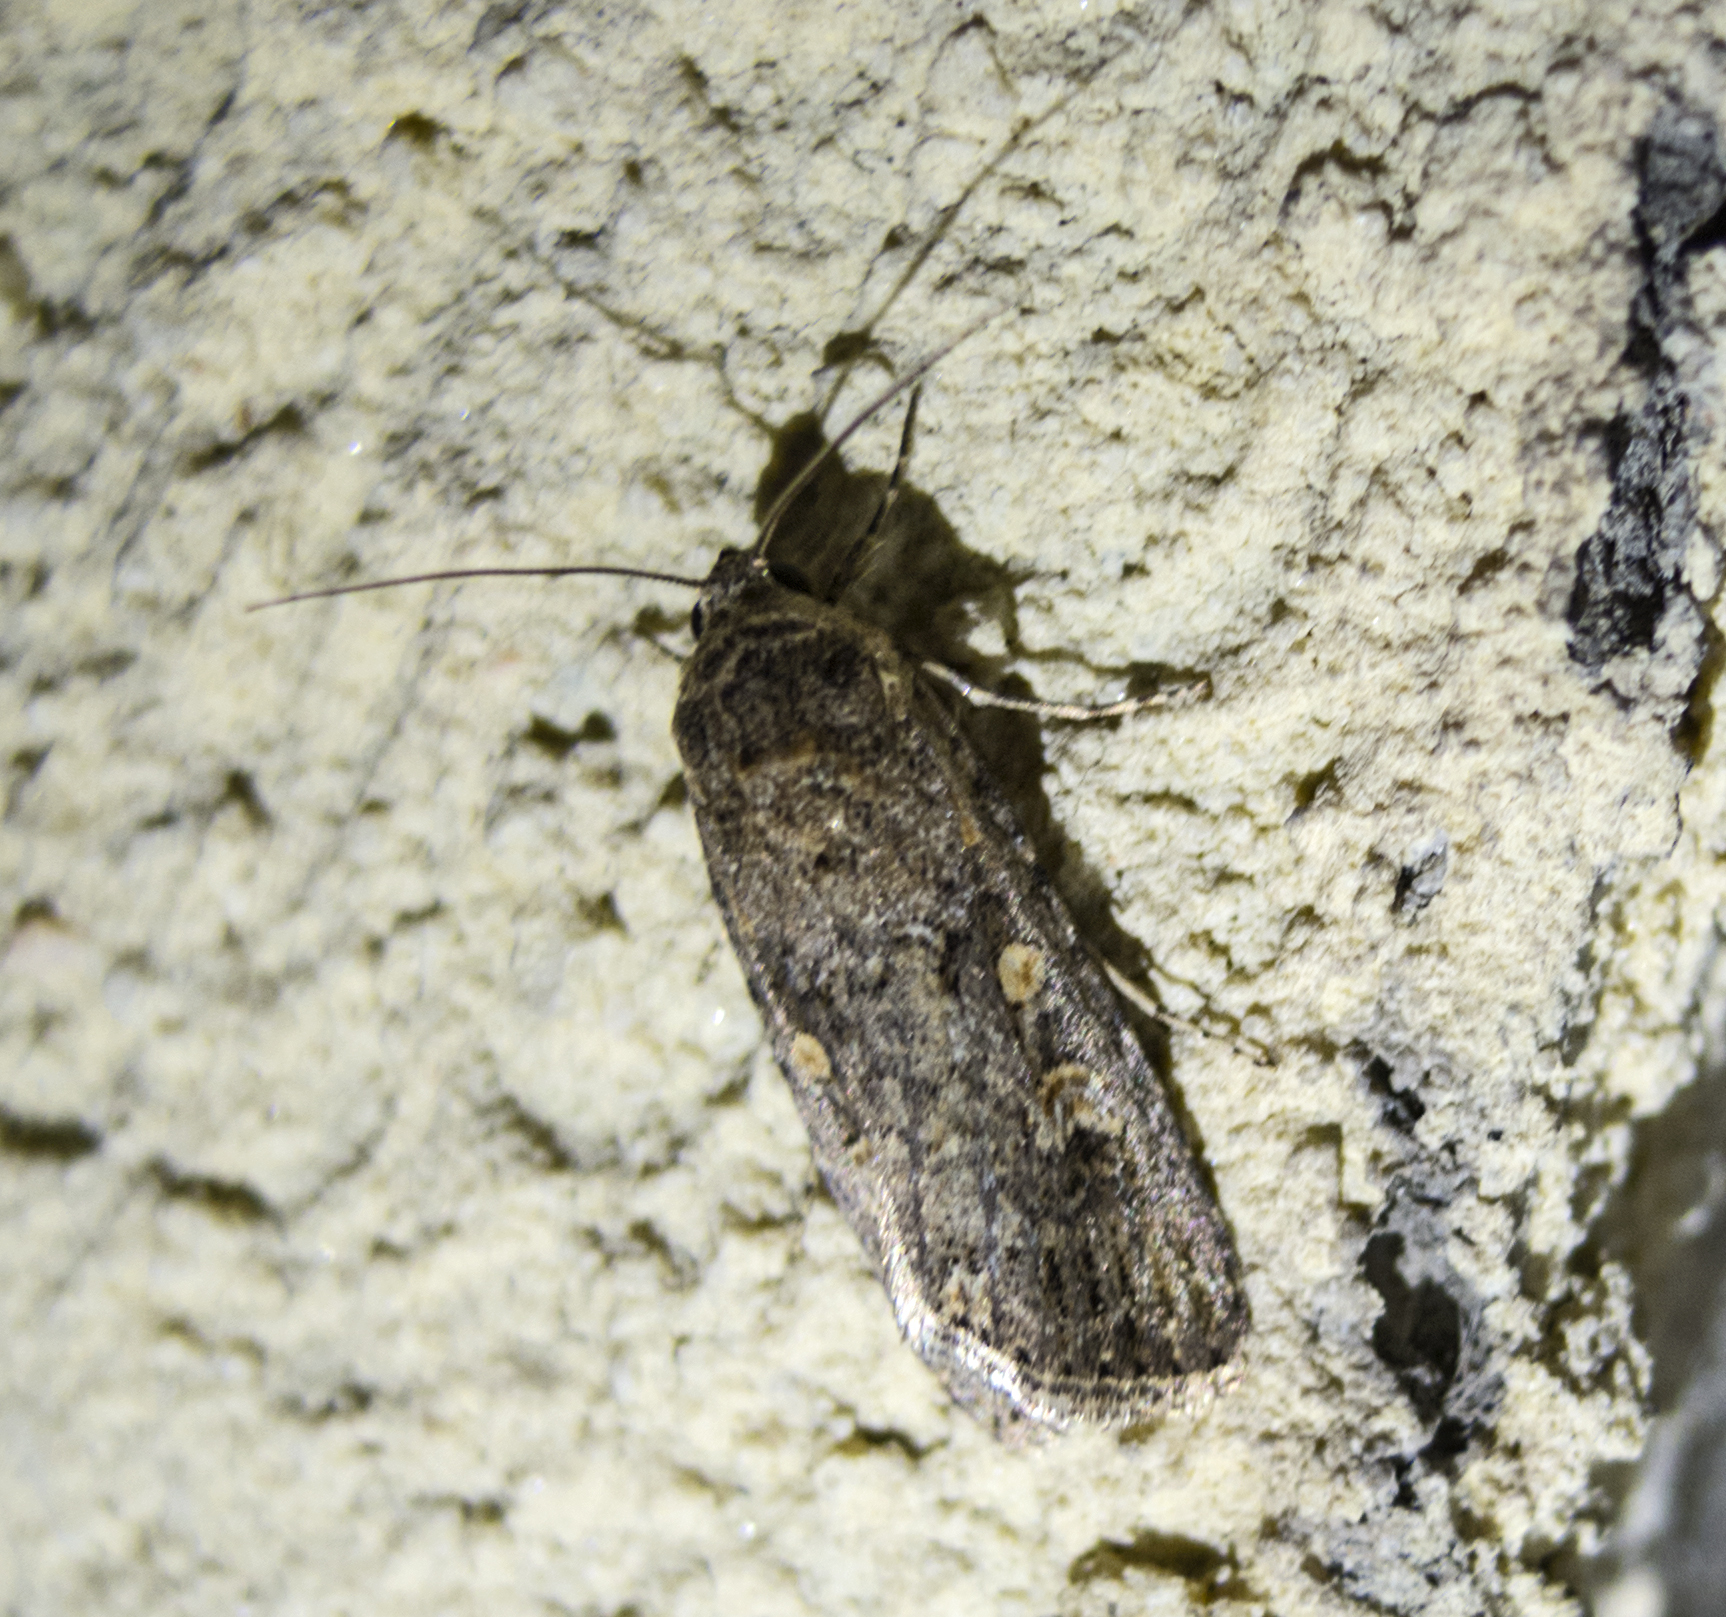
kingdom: Animalia
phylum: Arthropoda
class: Insecta
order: Lepidoptera
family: Noctuidae
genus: Spodoptera
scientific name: Spodoptera exigua
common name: Beet armyworm
